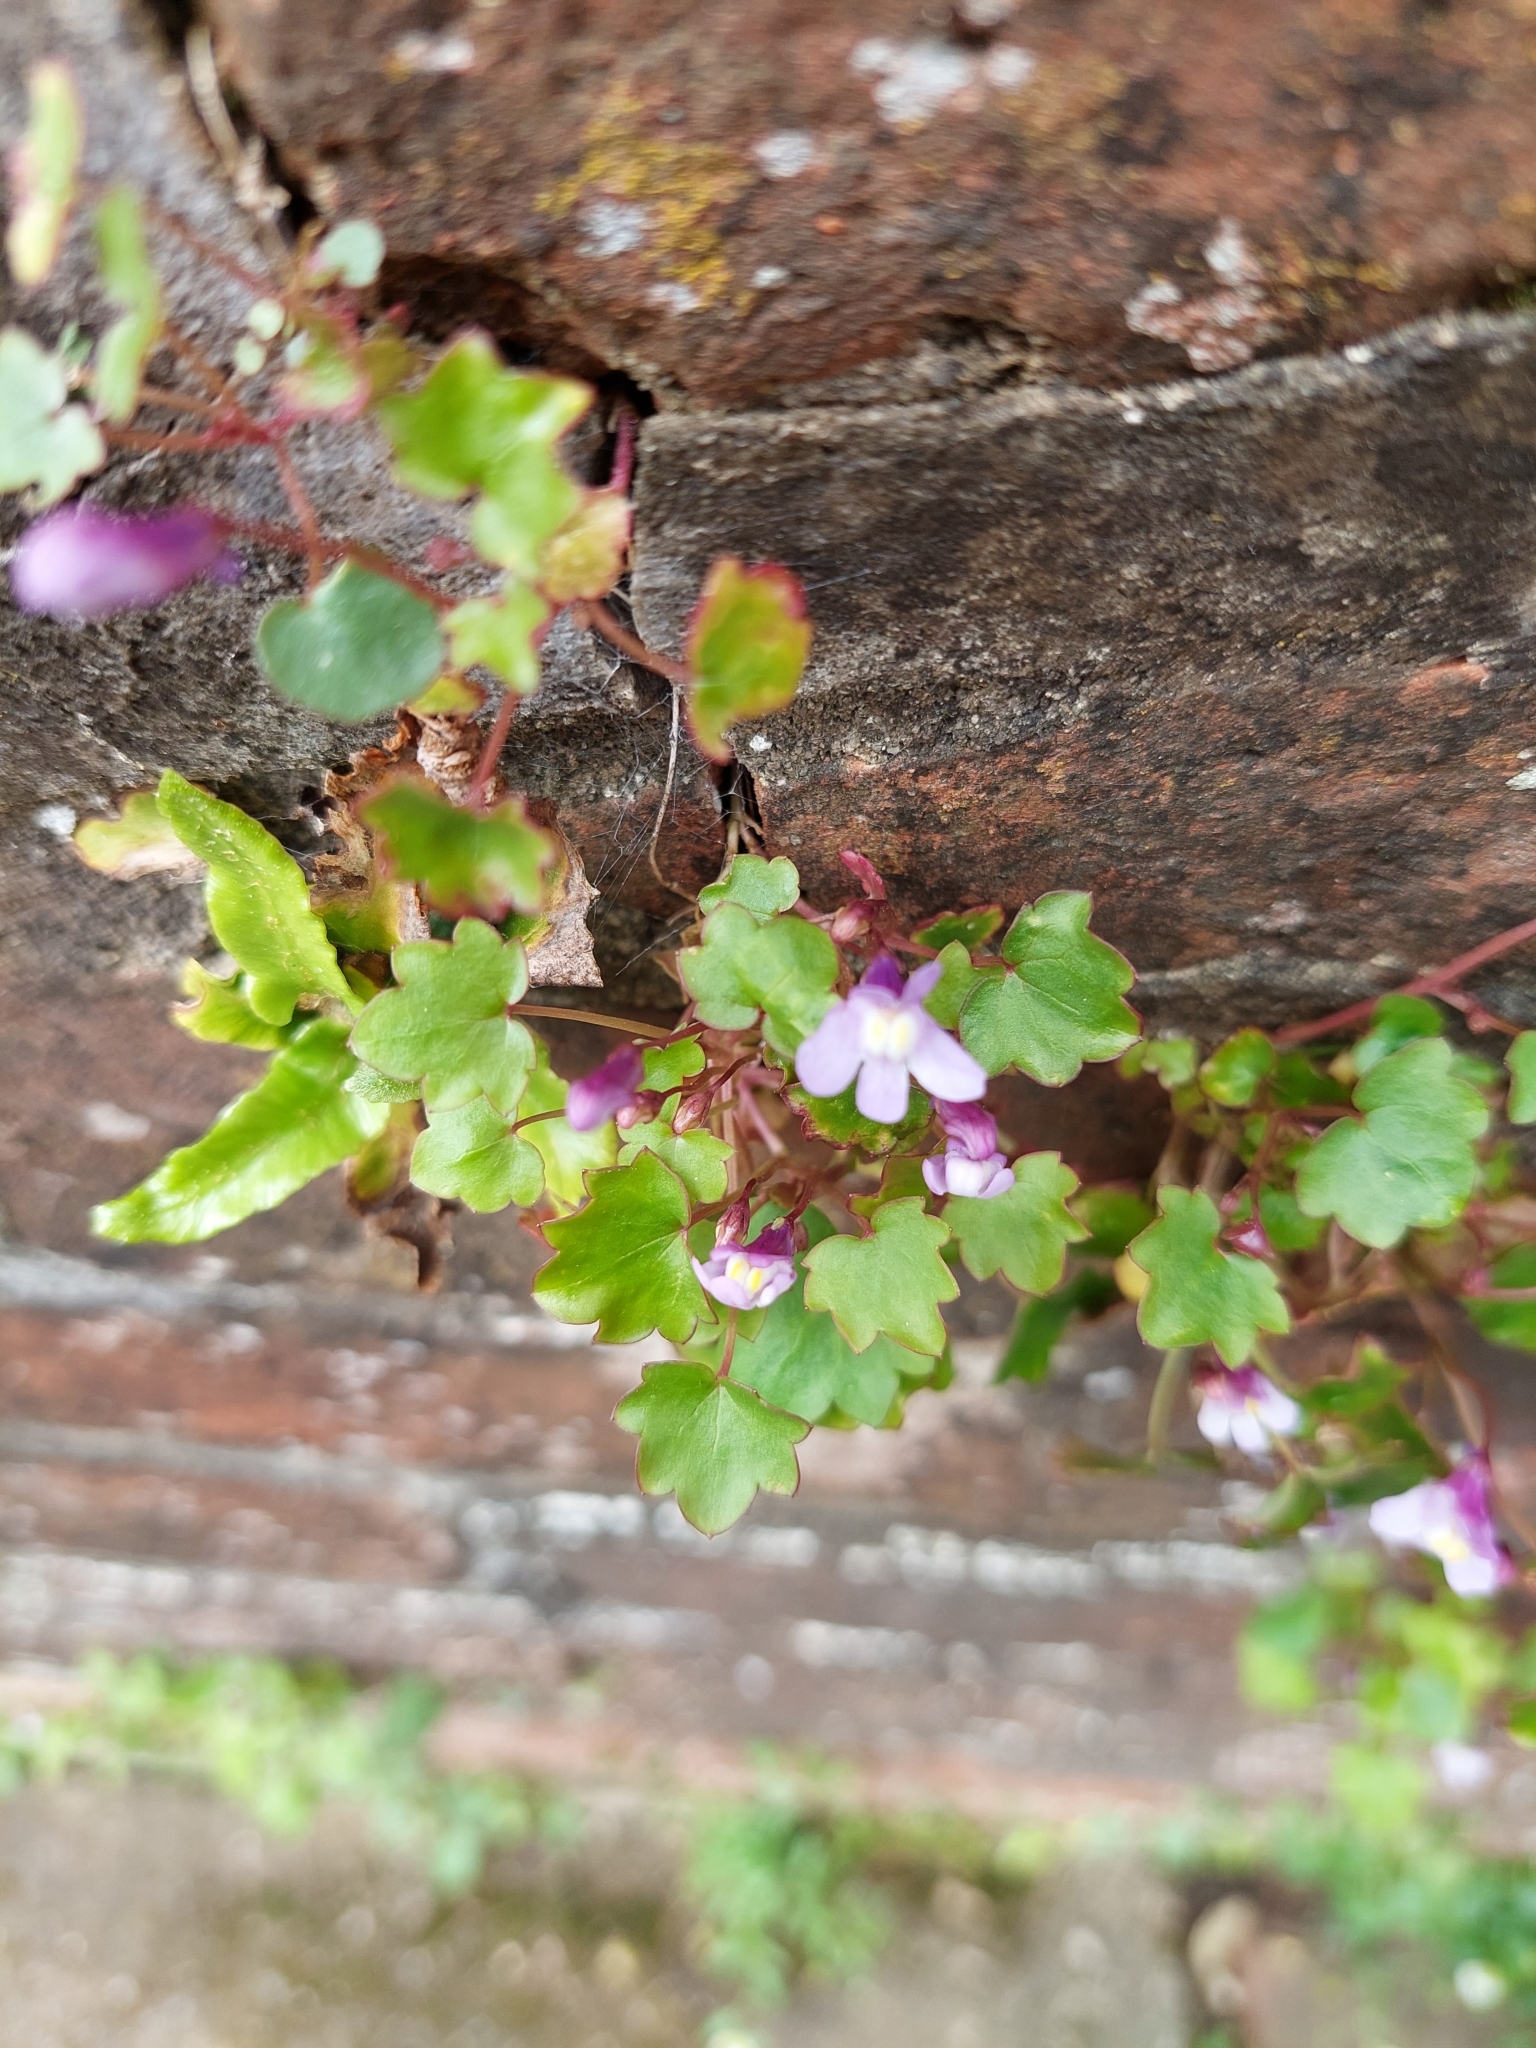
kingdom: Plantae
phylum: Tracheophyta
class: Magnoliopsida
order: Lamiales
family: Plantaginaceae
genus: Cymbalaria
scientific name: Cymbalaria muralis
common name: Ivy-leaved toadflax
